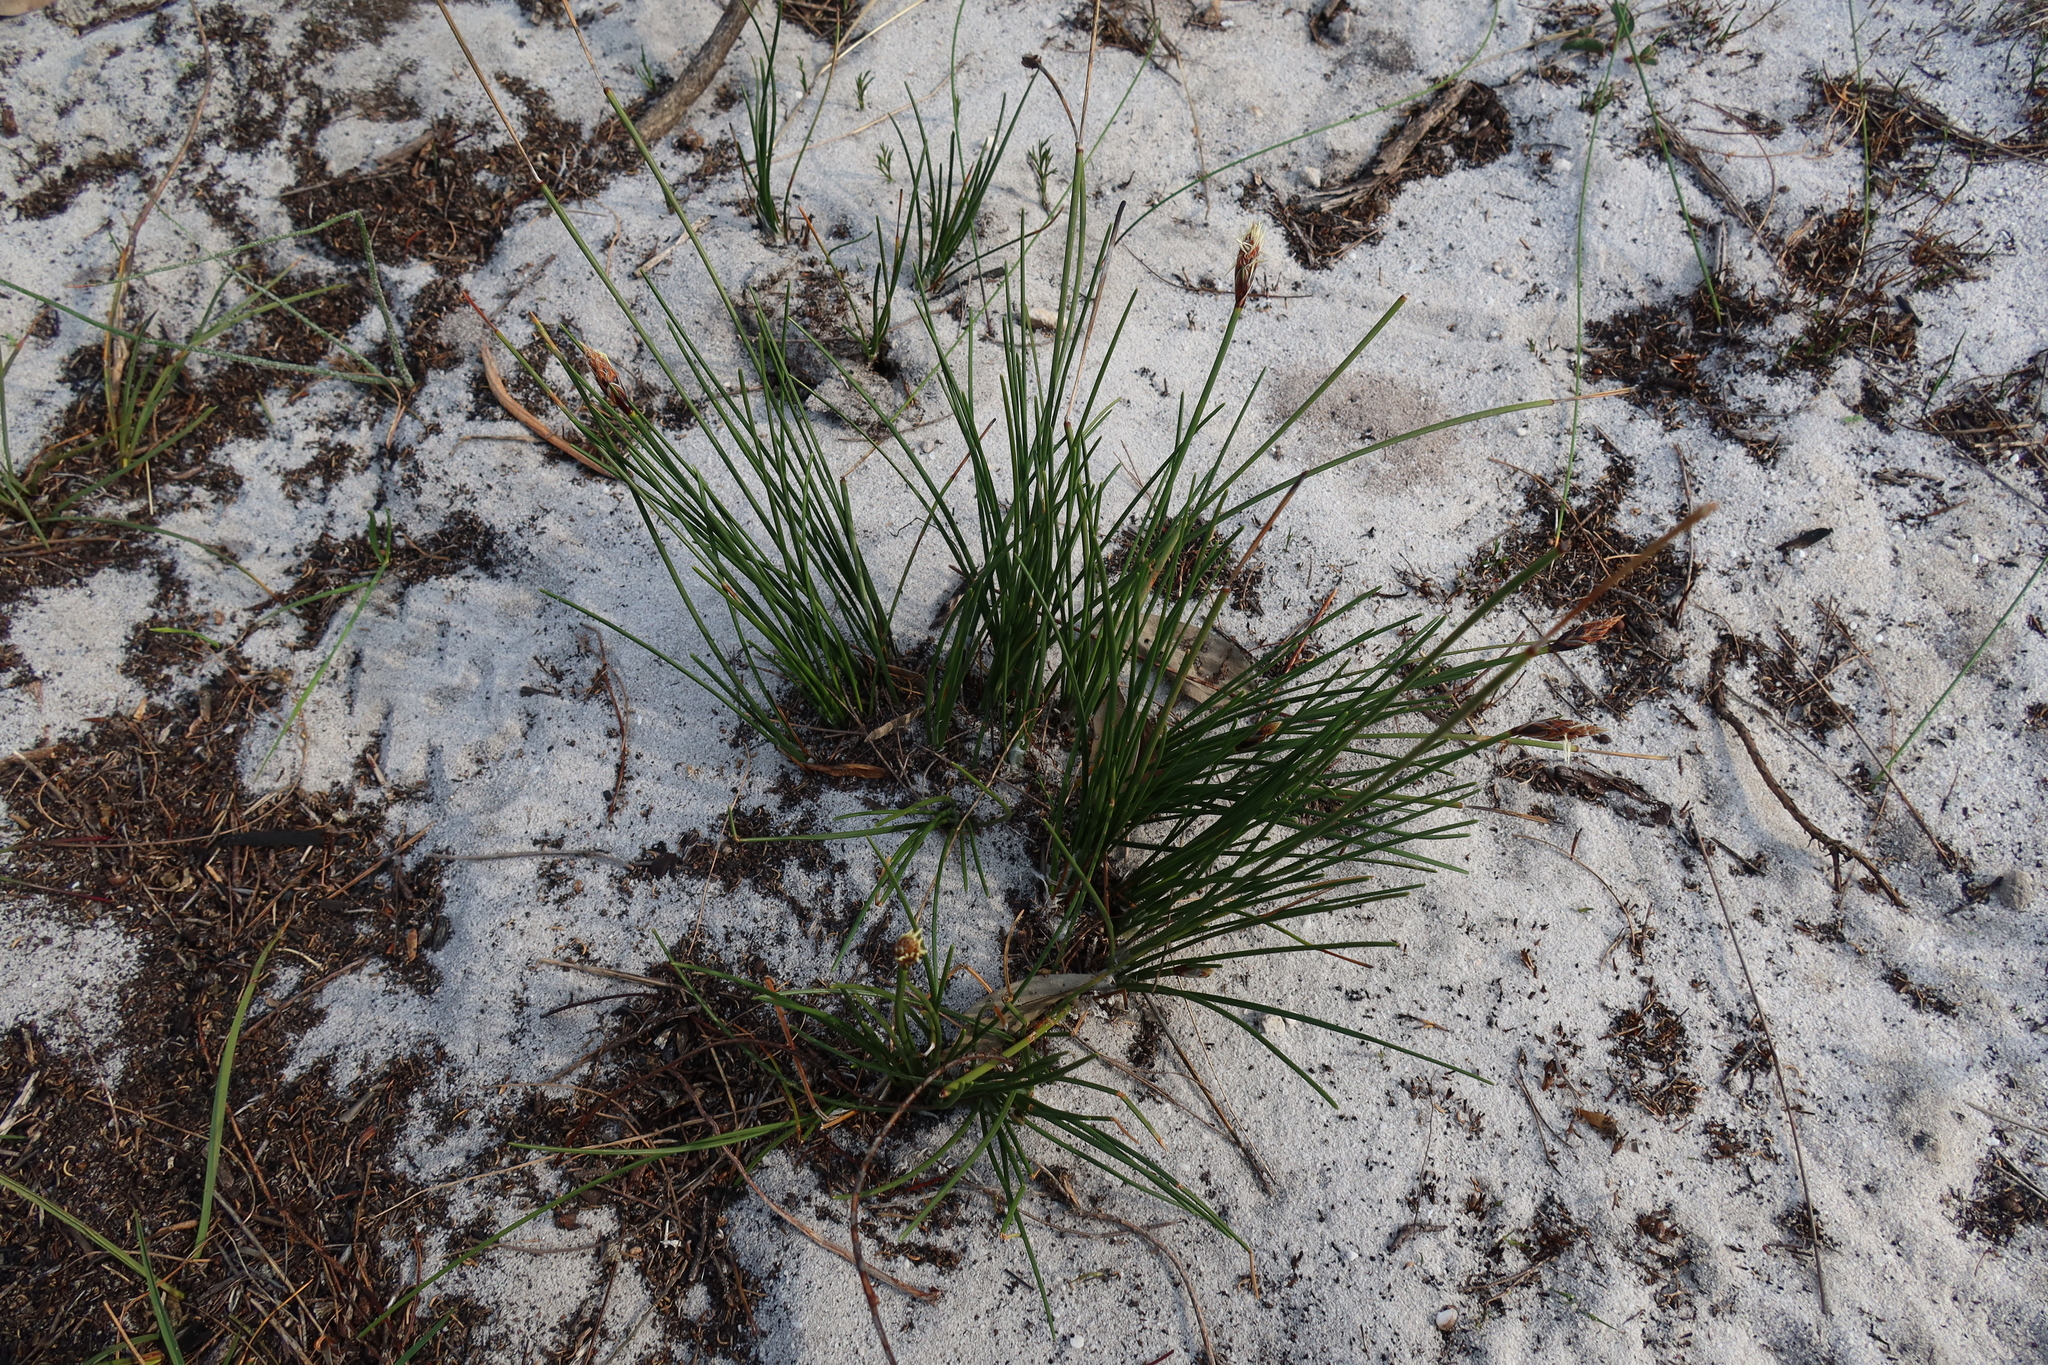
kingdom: Plantae
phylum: Tracheophyta
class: Liliopsida
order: Poales
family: Cyperaceae
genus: Ficinia
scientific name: Ficinia deusta
